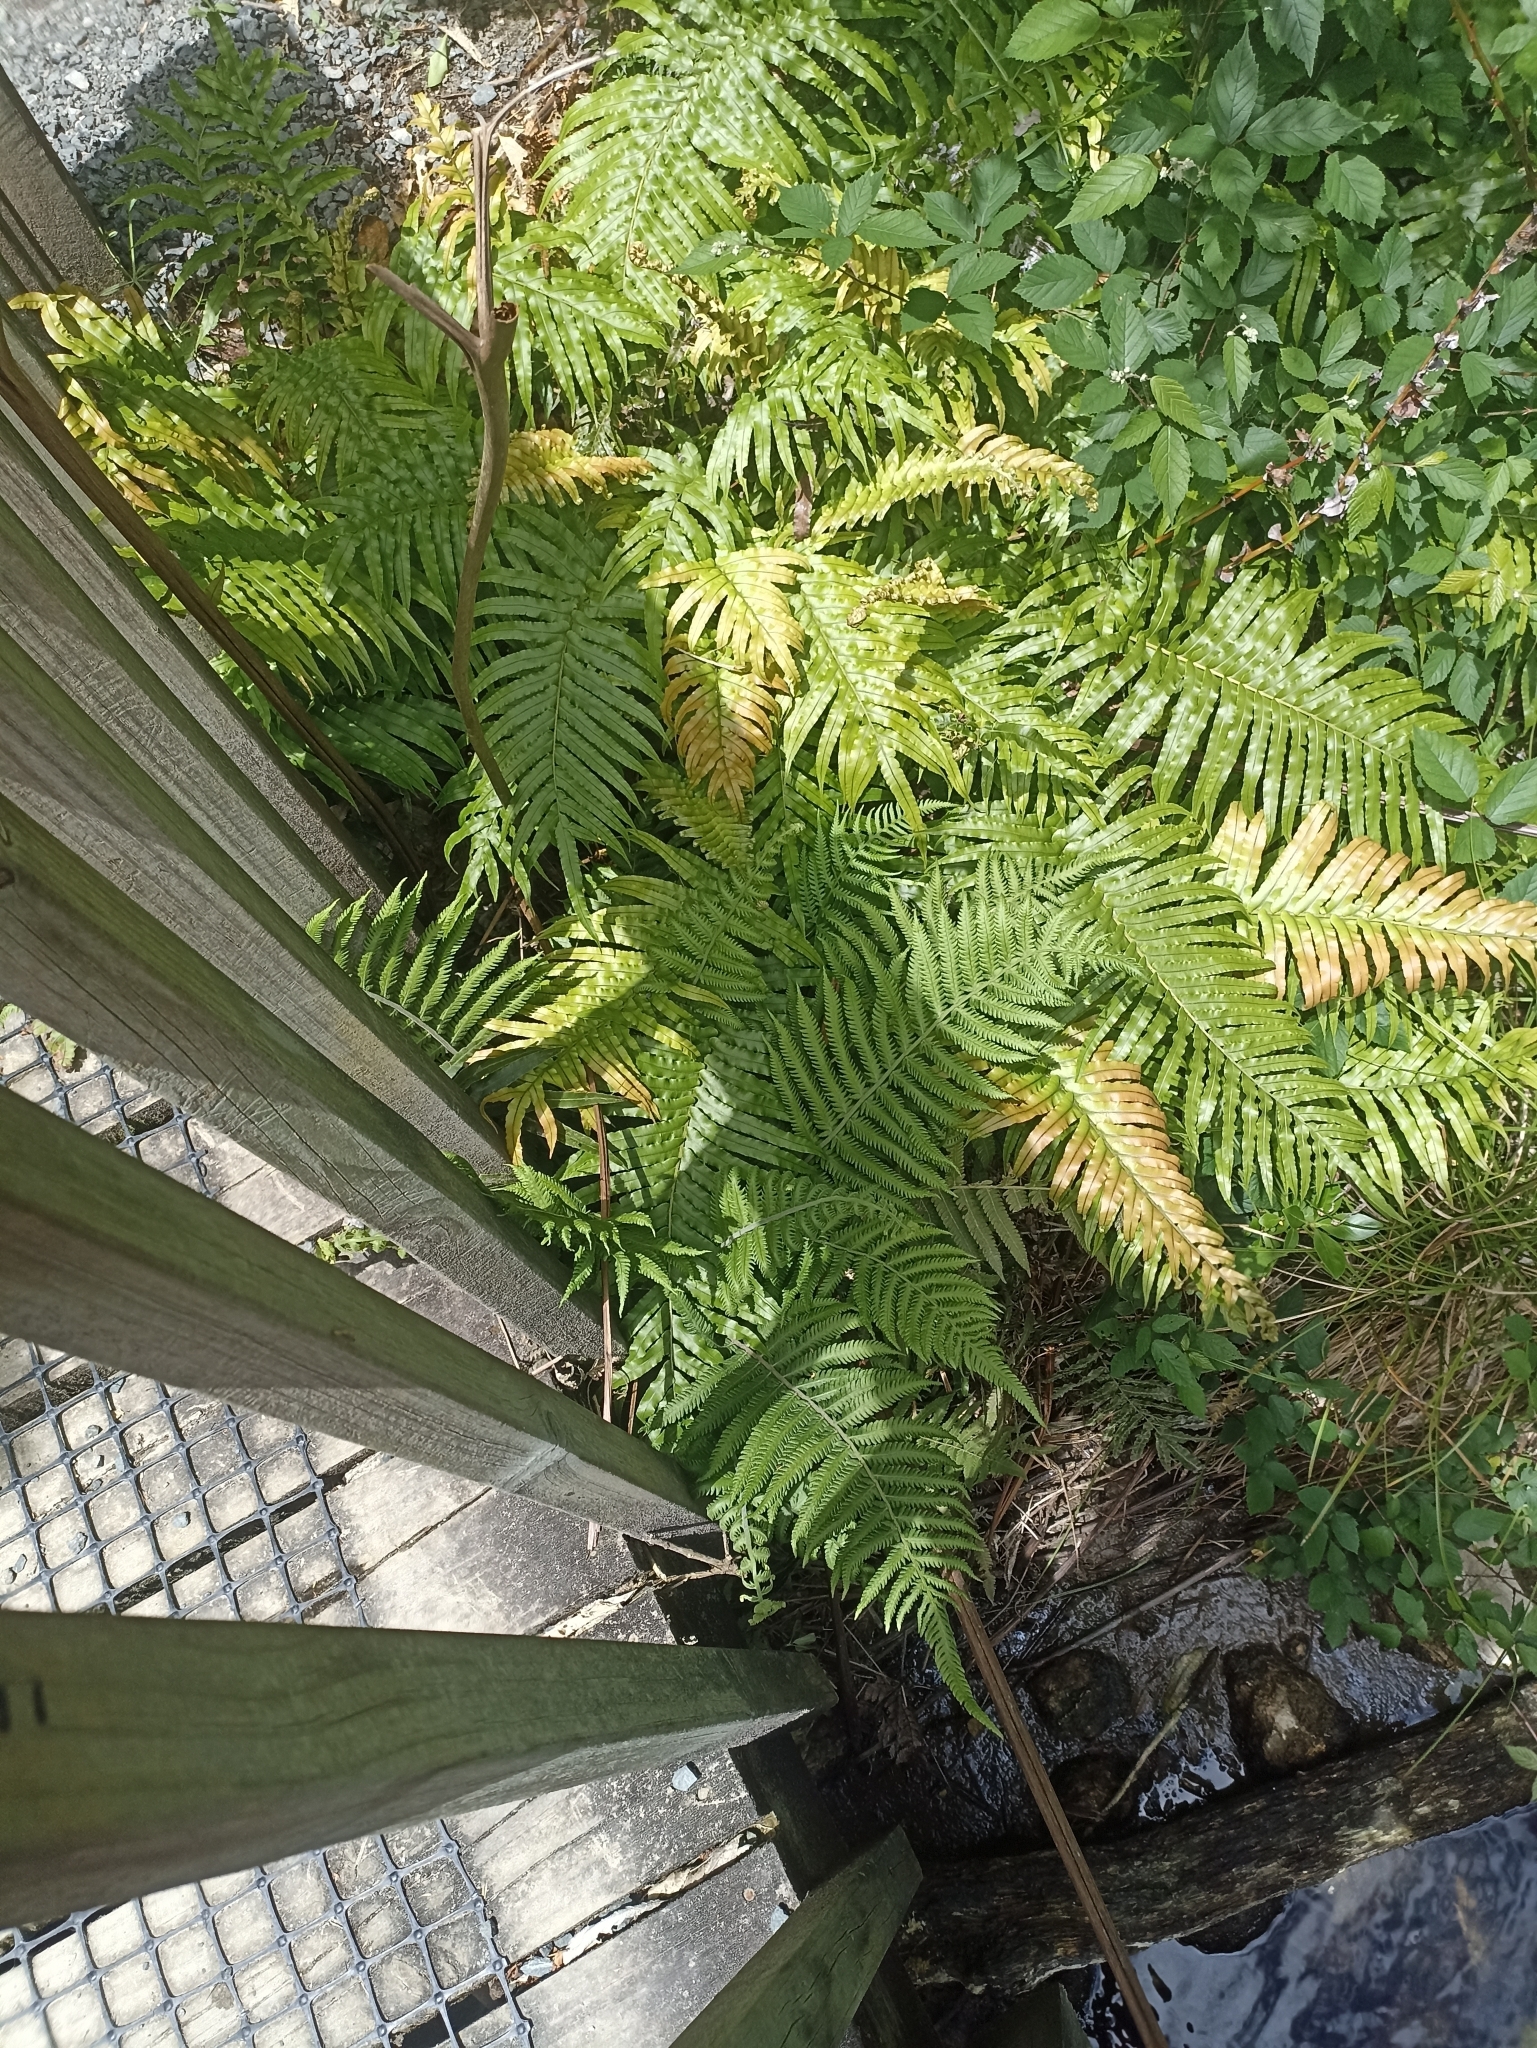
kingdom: Plantae
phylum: Tracheophyta
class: Polypodiopsida
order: Polypodiales
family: Thelypteridaceae
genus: Christella
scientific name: Christella dentata
